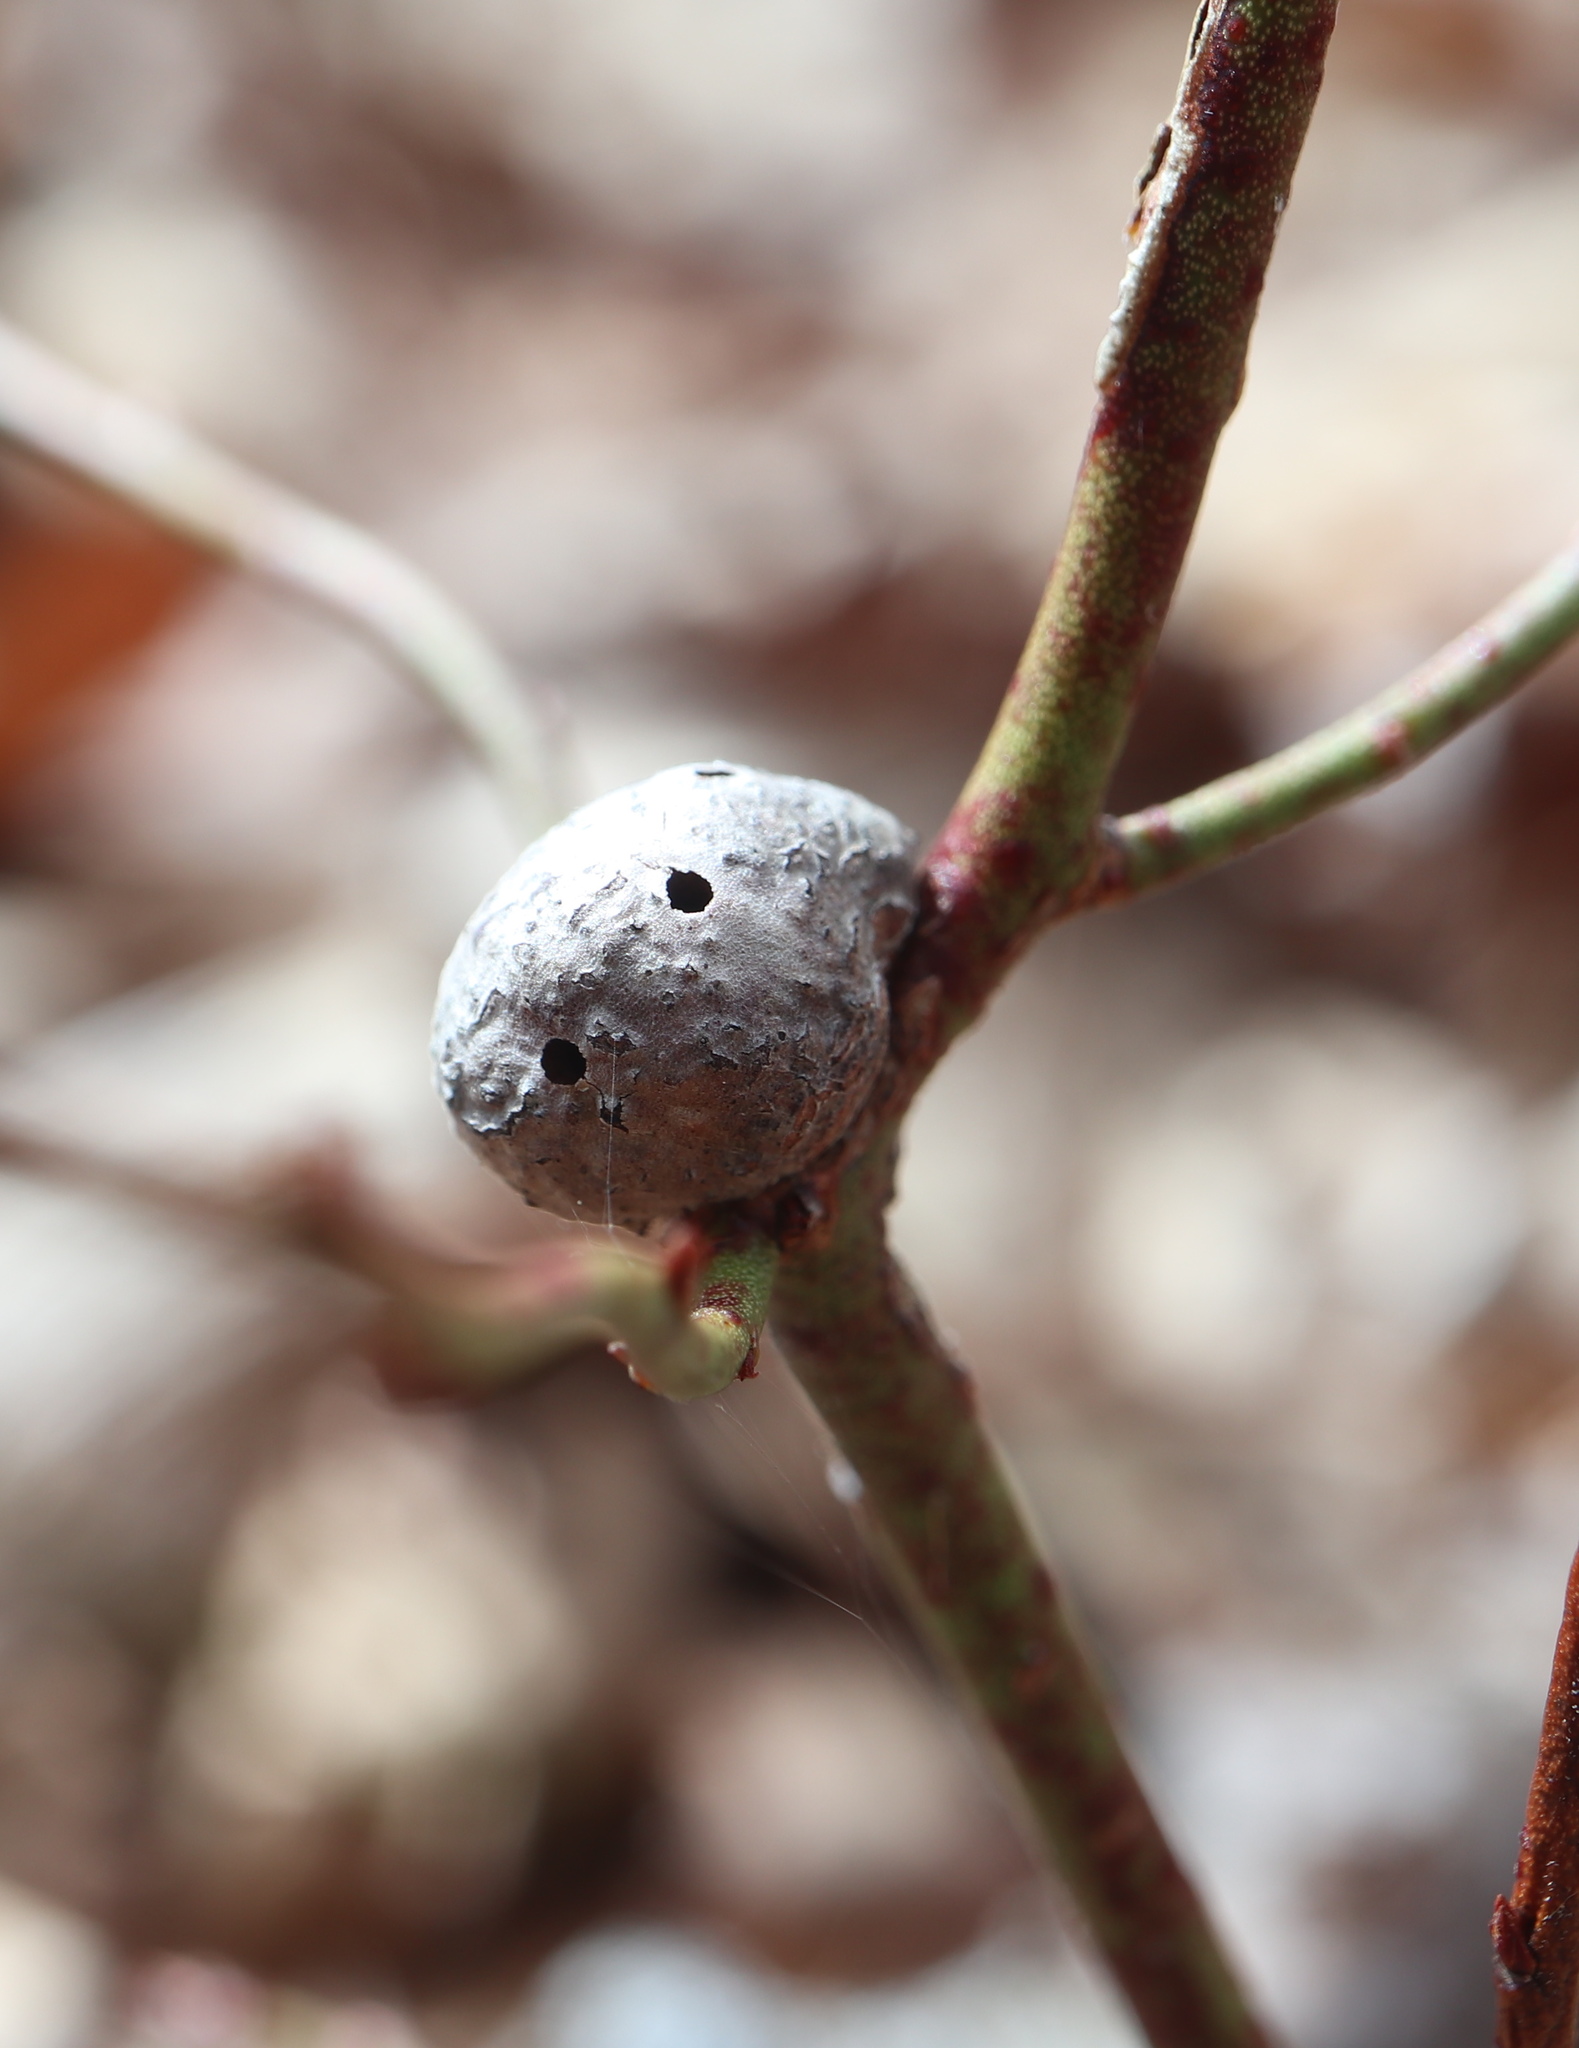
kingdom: Animalia
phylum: Arthropoda
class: Insecta
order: Hymenoptera
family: Pteromalidae
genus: Hemadas
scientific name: Hemadas nubilipennis
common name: Blueberry stem gall wasp
